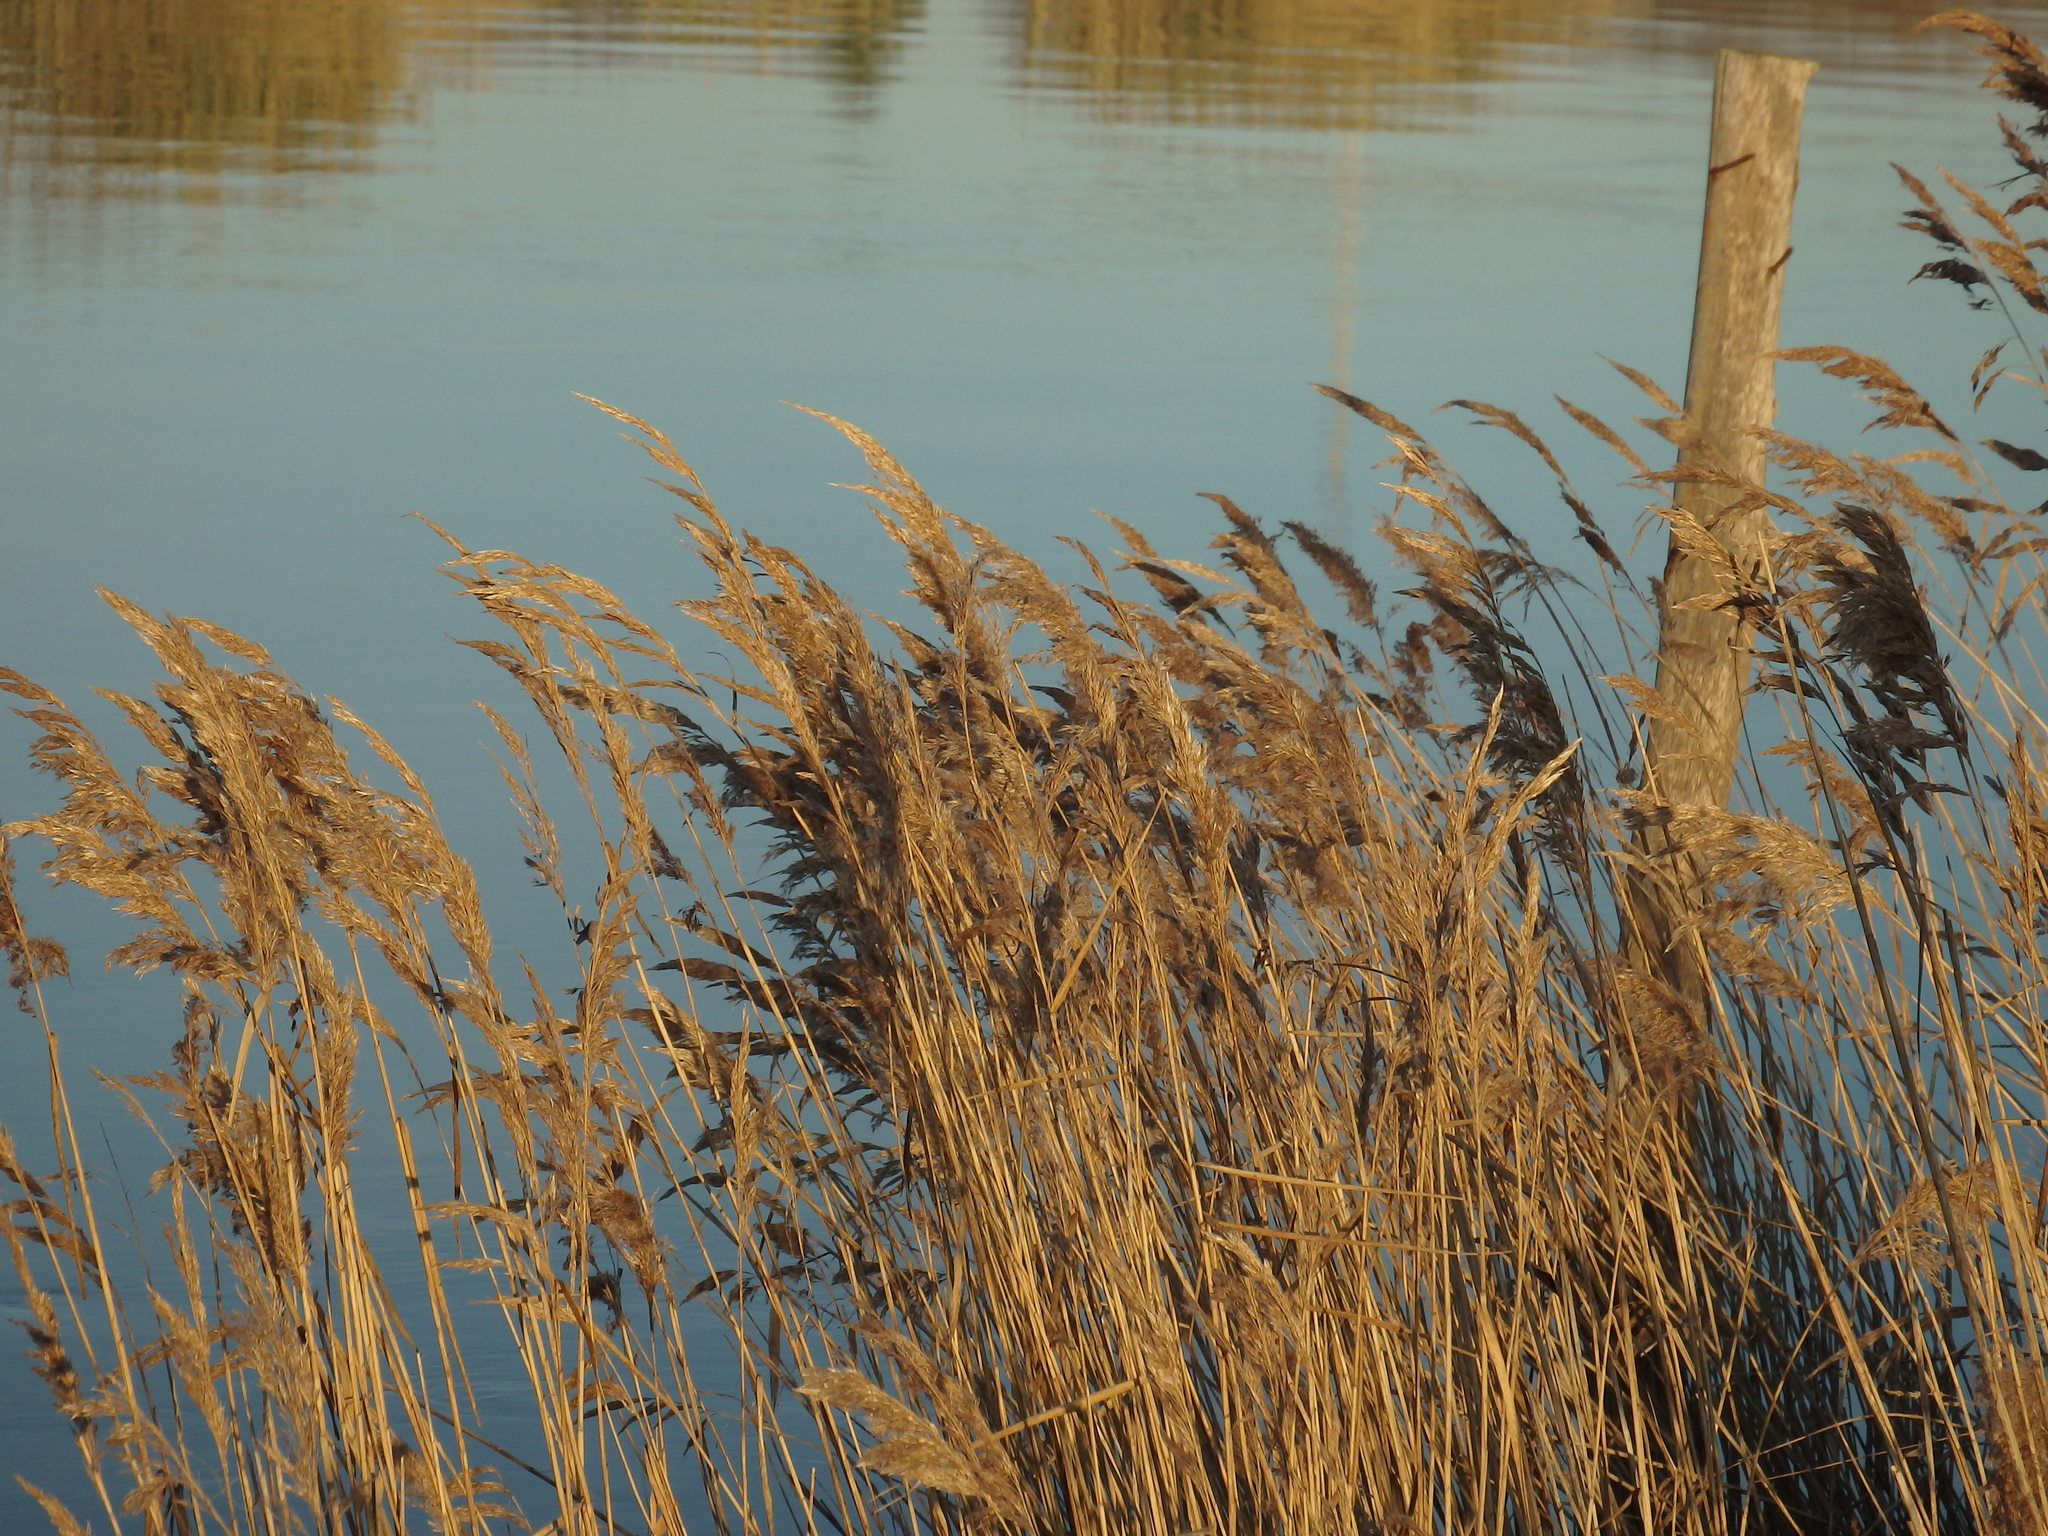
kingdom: Plantae
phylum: Tracheophyta
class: Liliopsida
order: Poales
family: Poaceae
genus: Phragmites
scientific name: Phragmites australis
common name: Common reed
